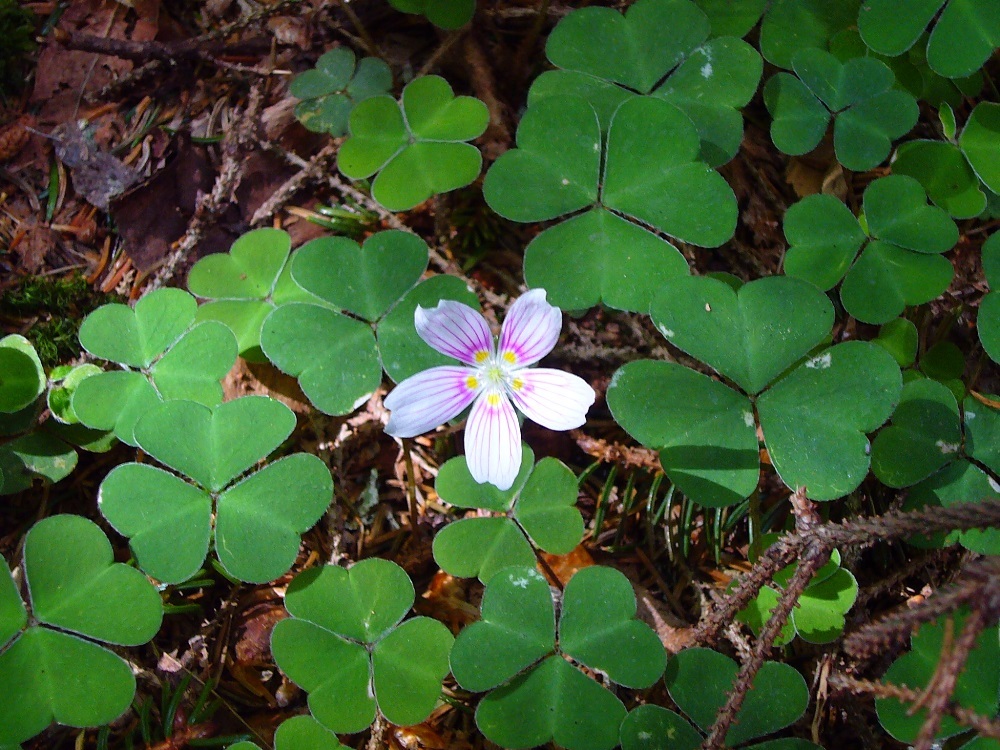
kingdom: Plantae
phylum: Tracheophyta
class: Magnoliopsida
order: Oxalidales
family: Oxalidaceae
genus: Oxalis
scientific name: Oxalis montana
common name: American wood-sorrel
